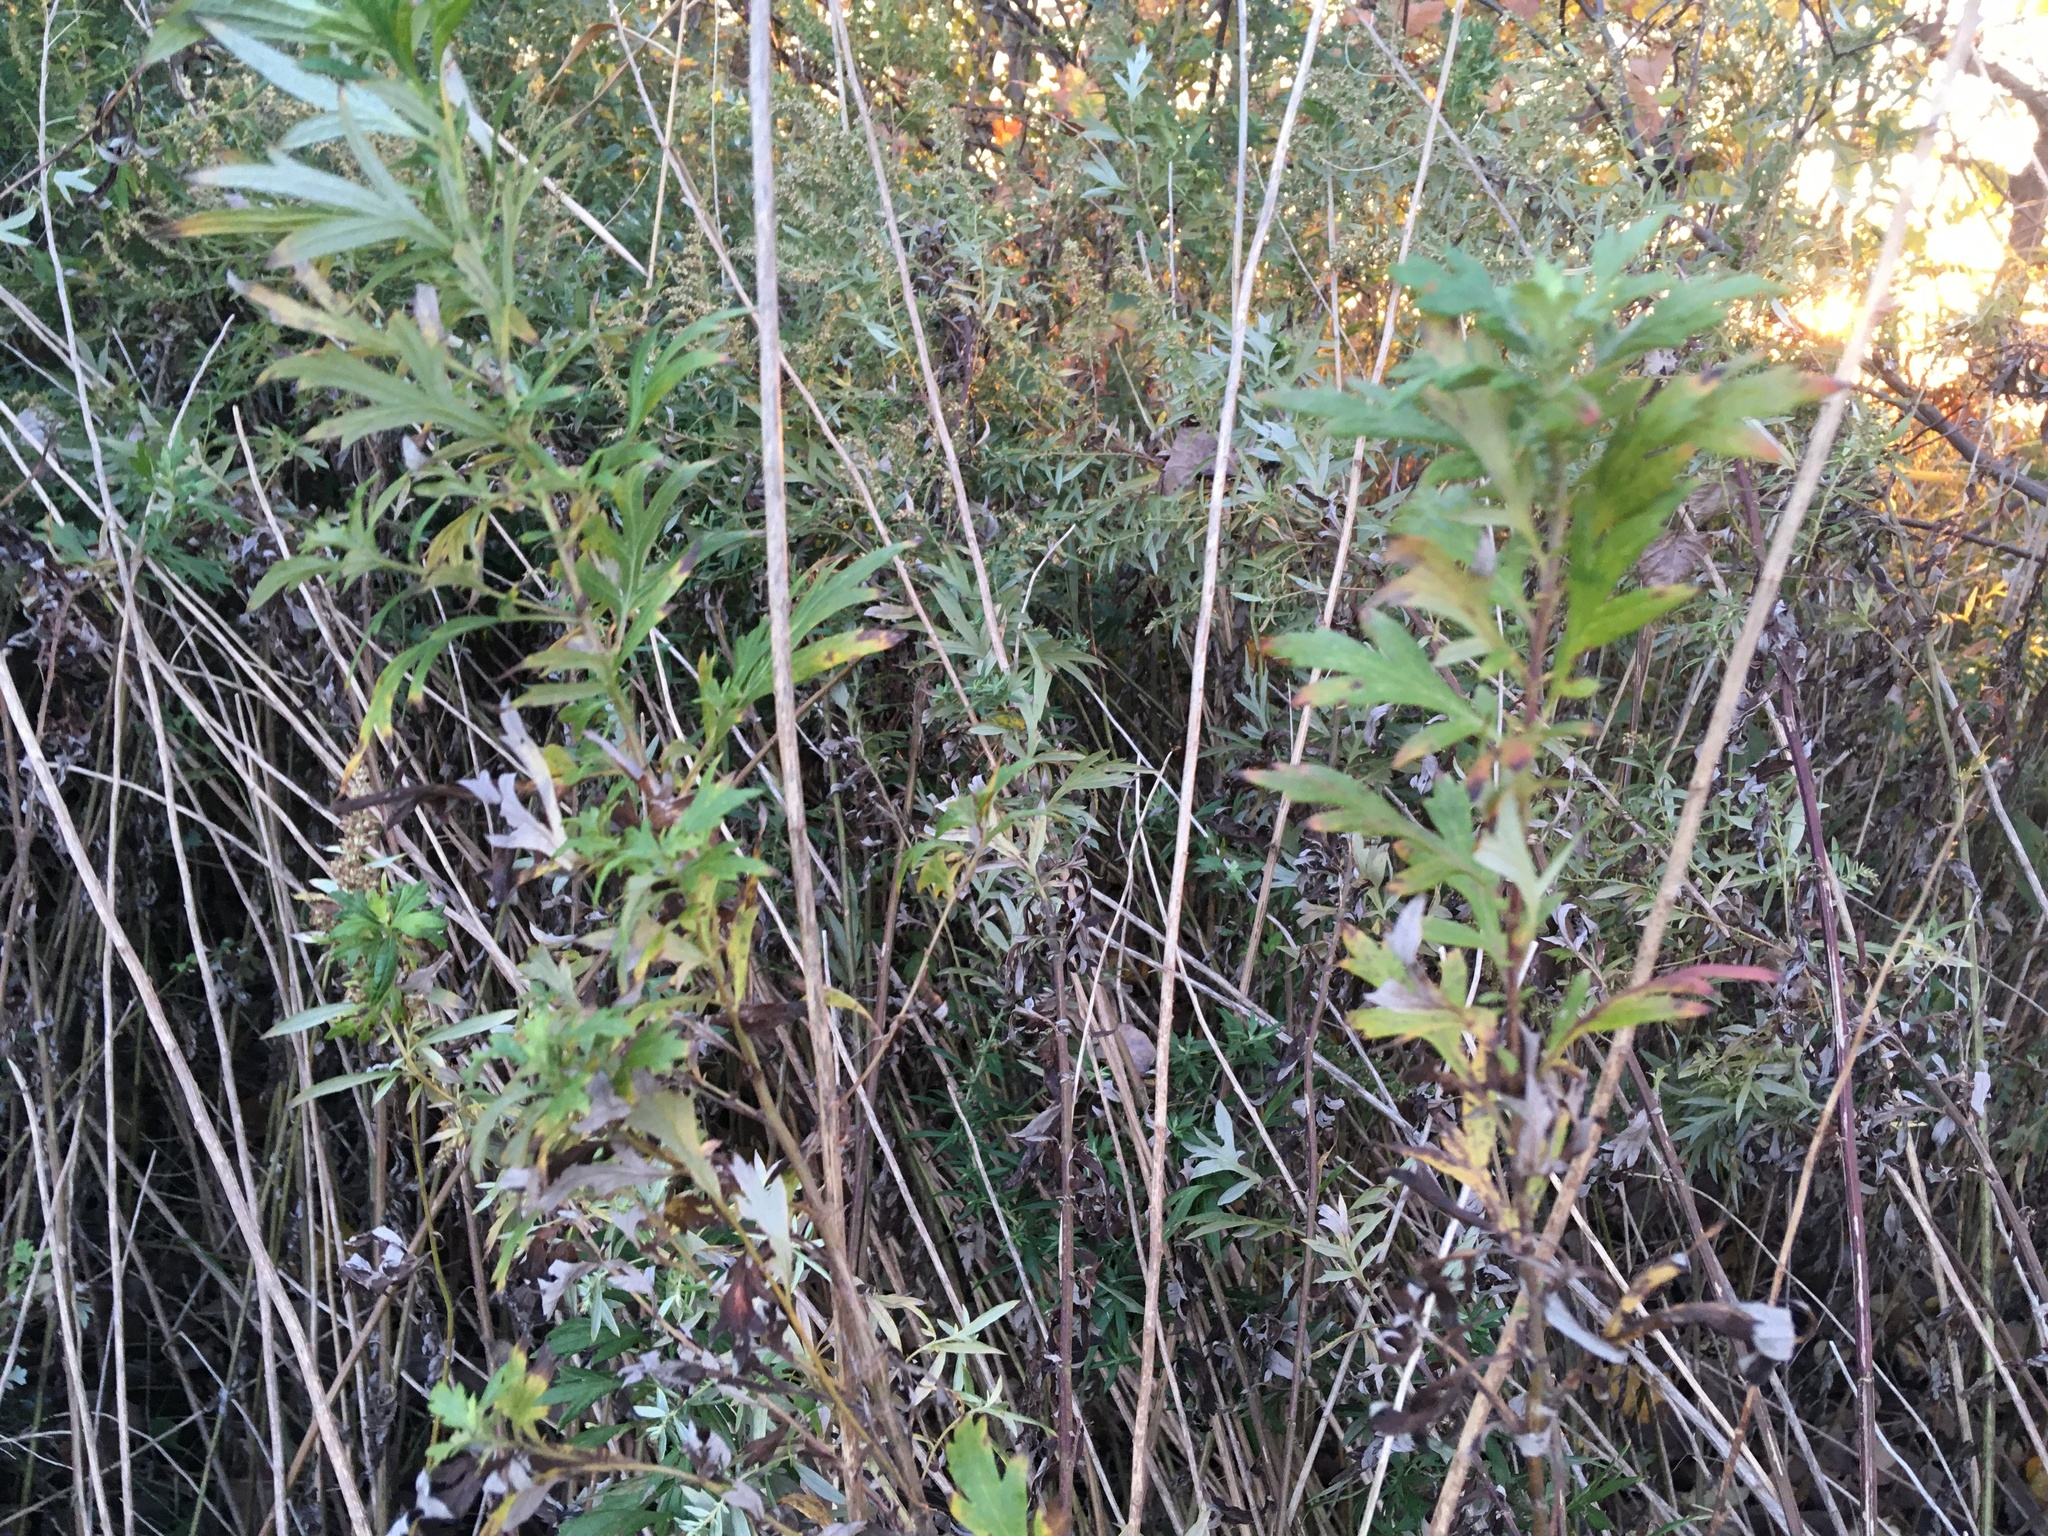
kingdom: Plantae
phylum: Tracheophyta
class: Magnoliopsida
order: Asterales
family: Asteraceae
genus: Artemisia
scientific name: Artemisia vulgaris
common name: Mugwort
